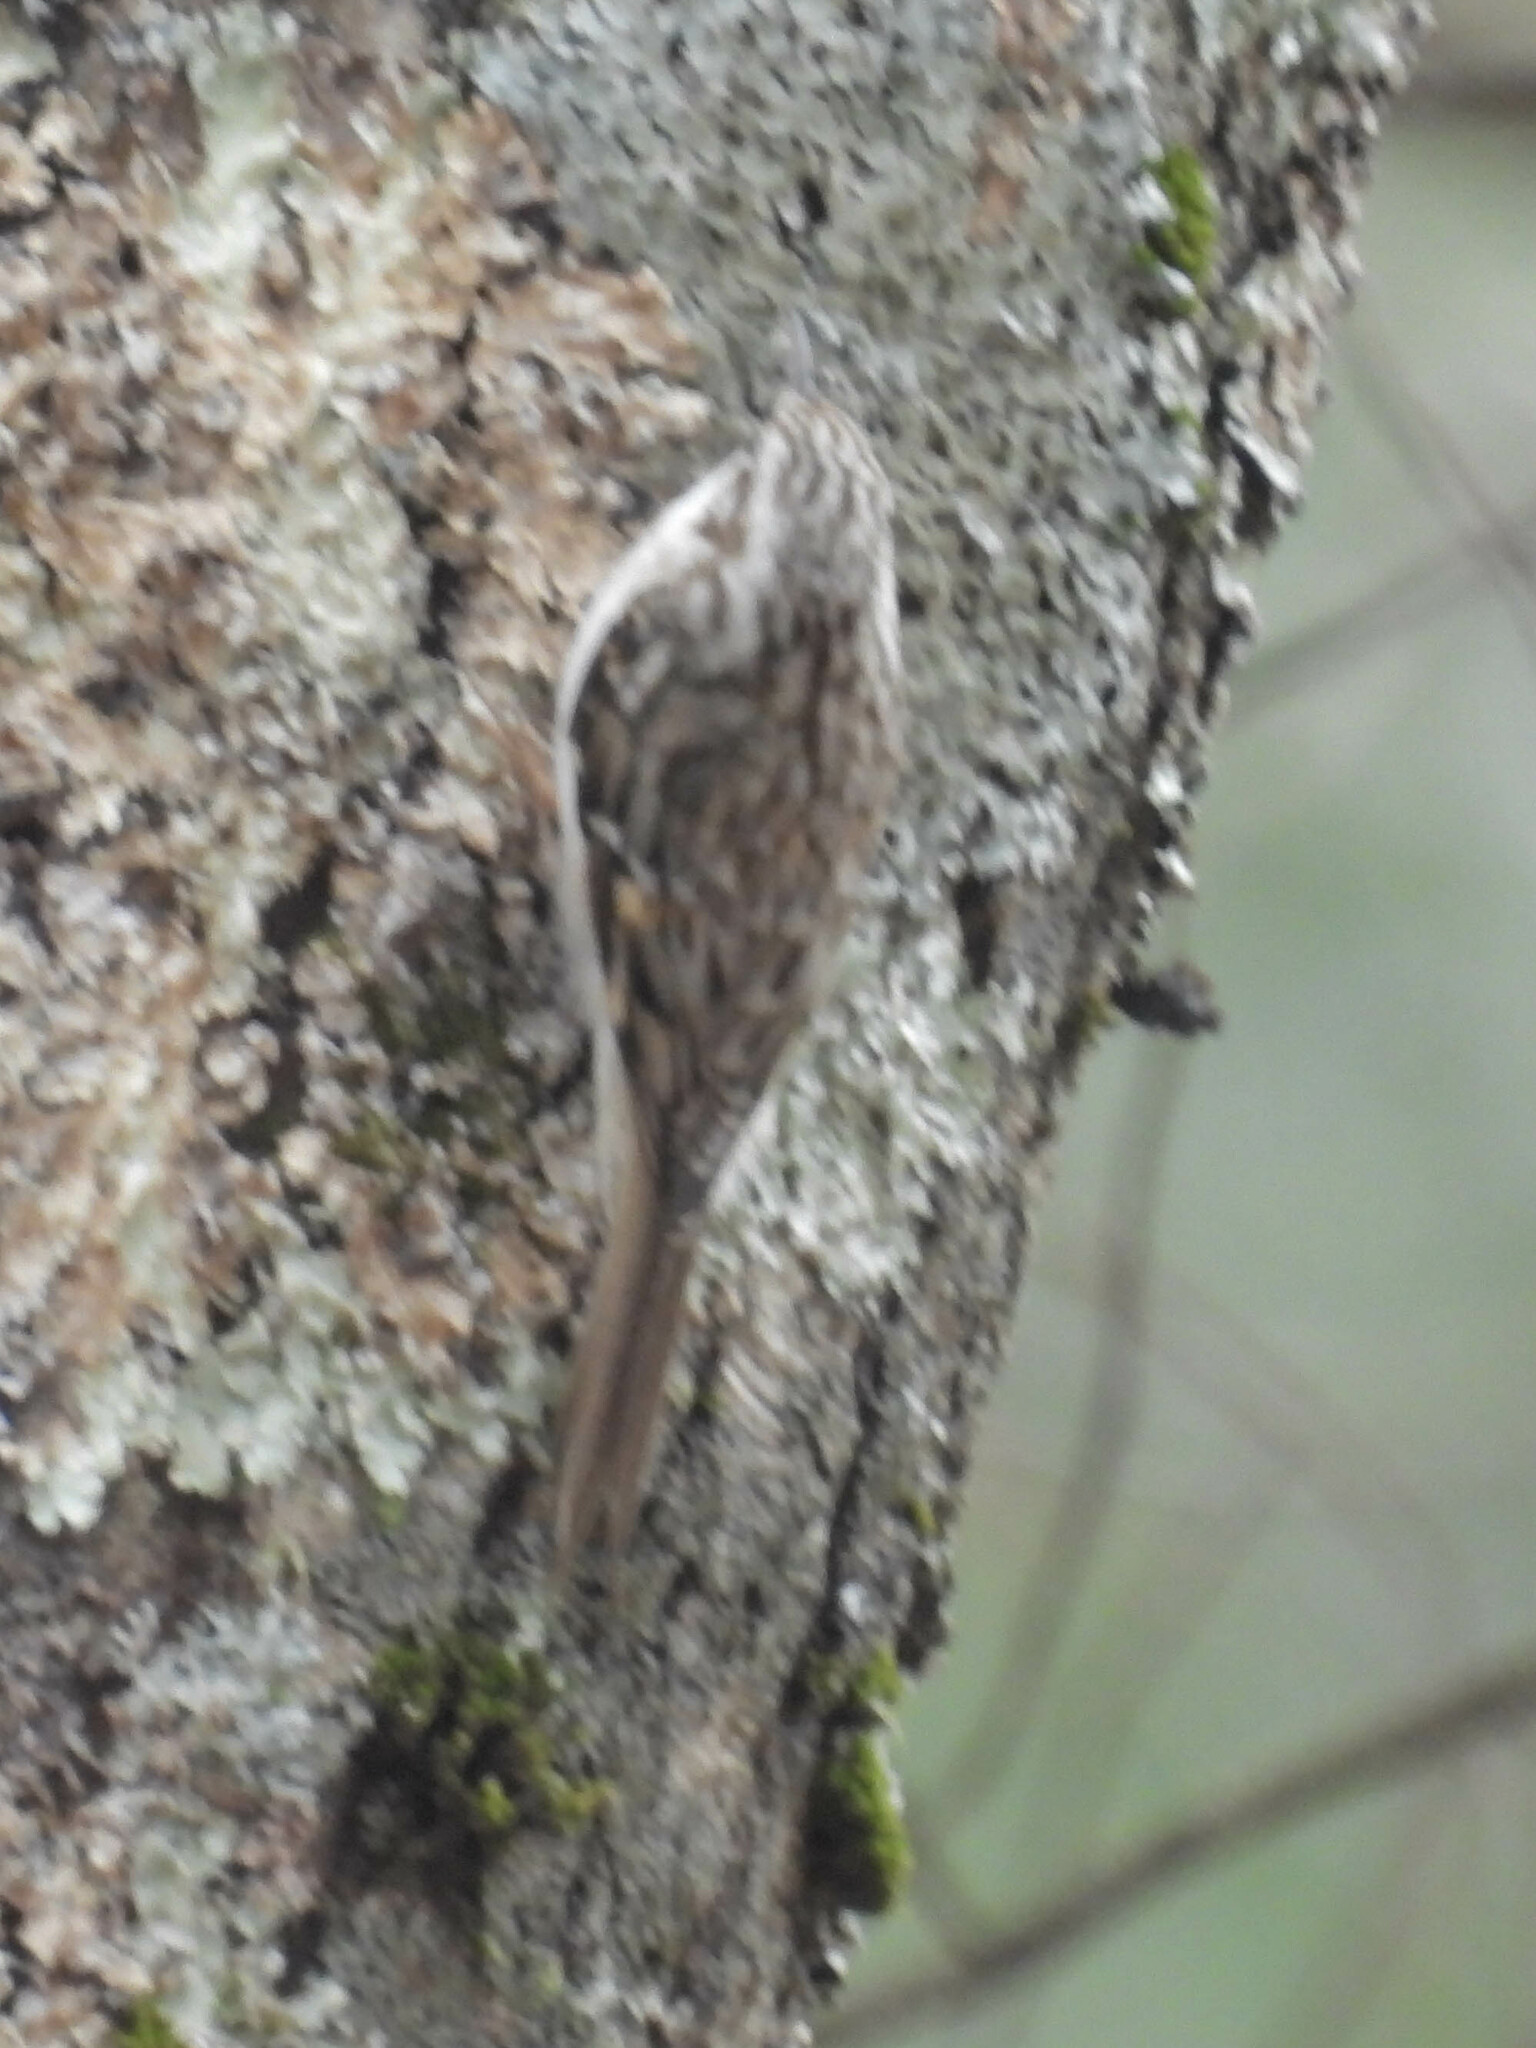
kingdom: Animalia
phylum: Chordata
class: Aves
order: Passeriformes
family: Certhiidae
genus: Certhia
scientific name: Certhia americana
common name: Brown creeper
